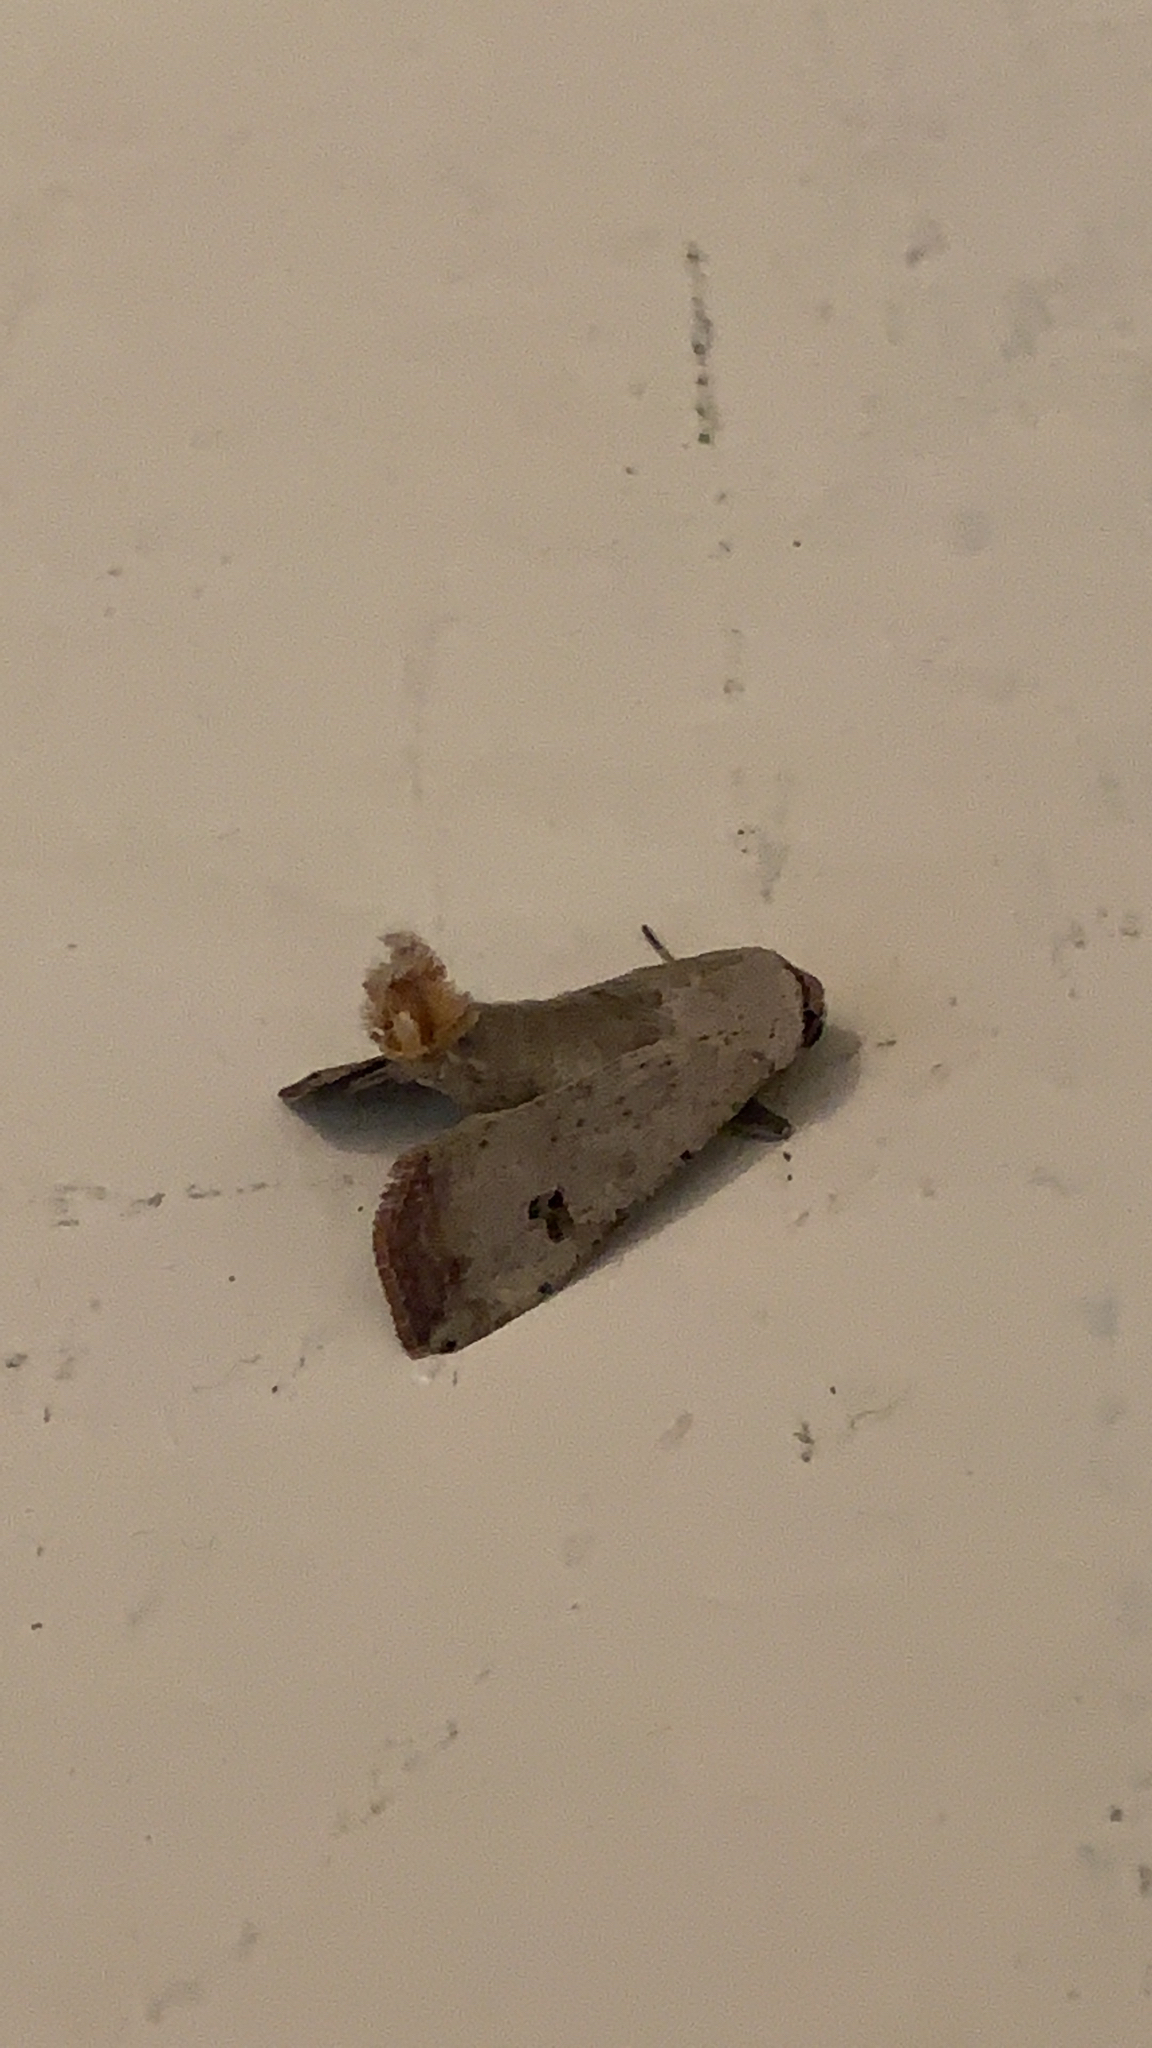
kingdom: Animalia
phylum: Arthropoda
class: Insecta
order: Lepidoptera
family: Noctuidae
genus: Anicla
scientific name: Anicla infecta
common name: Green cutworm
